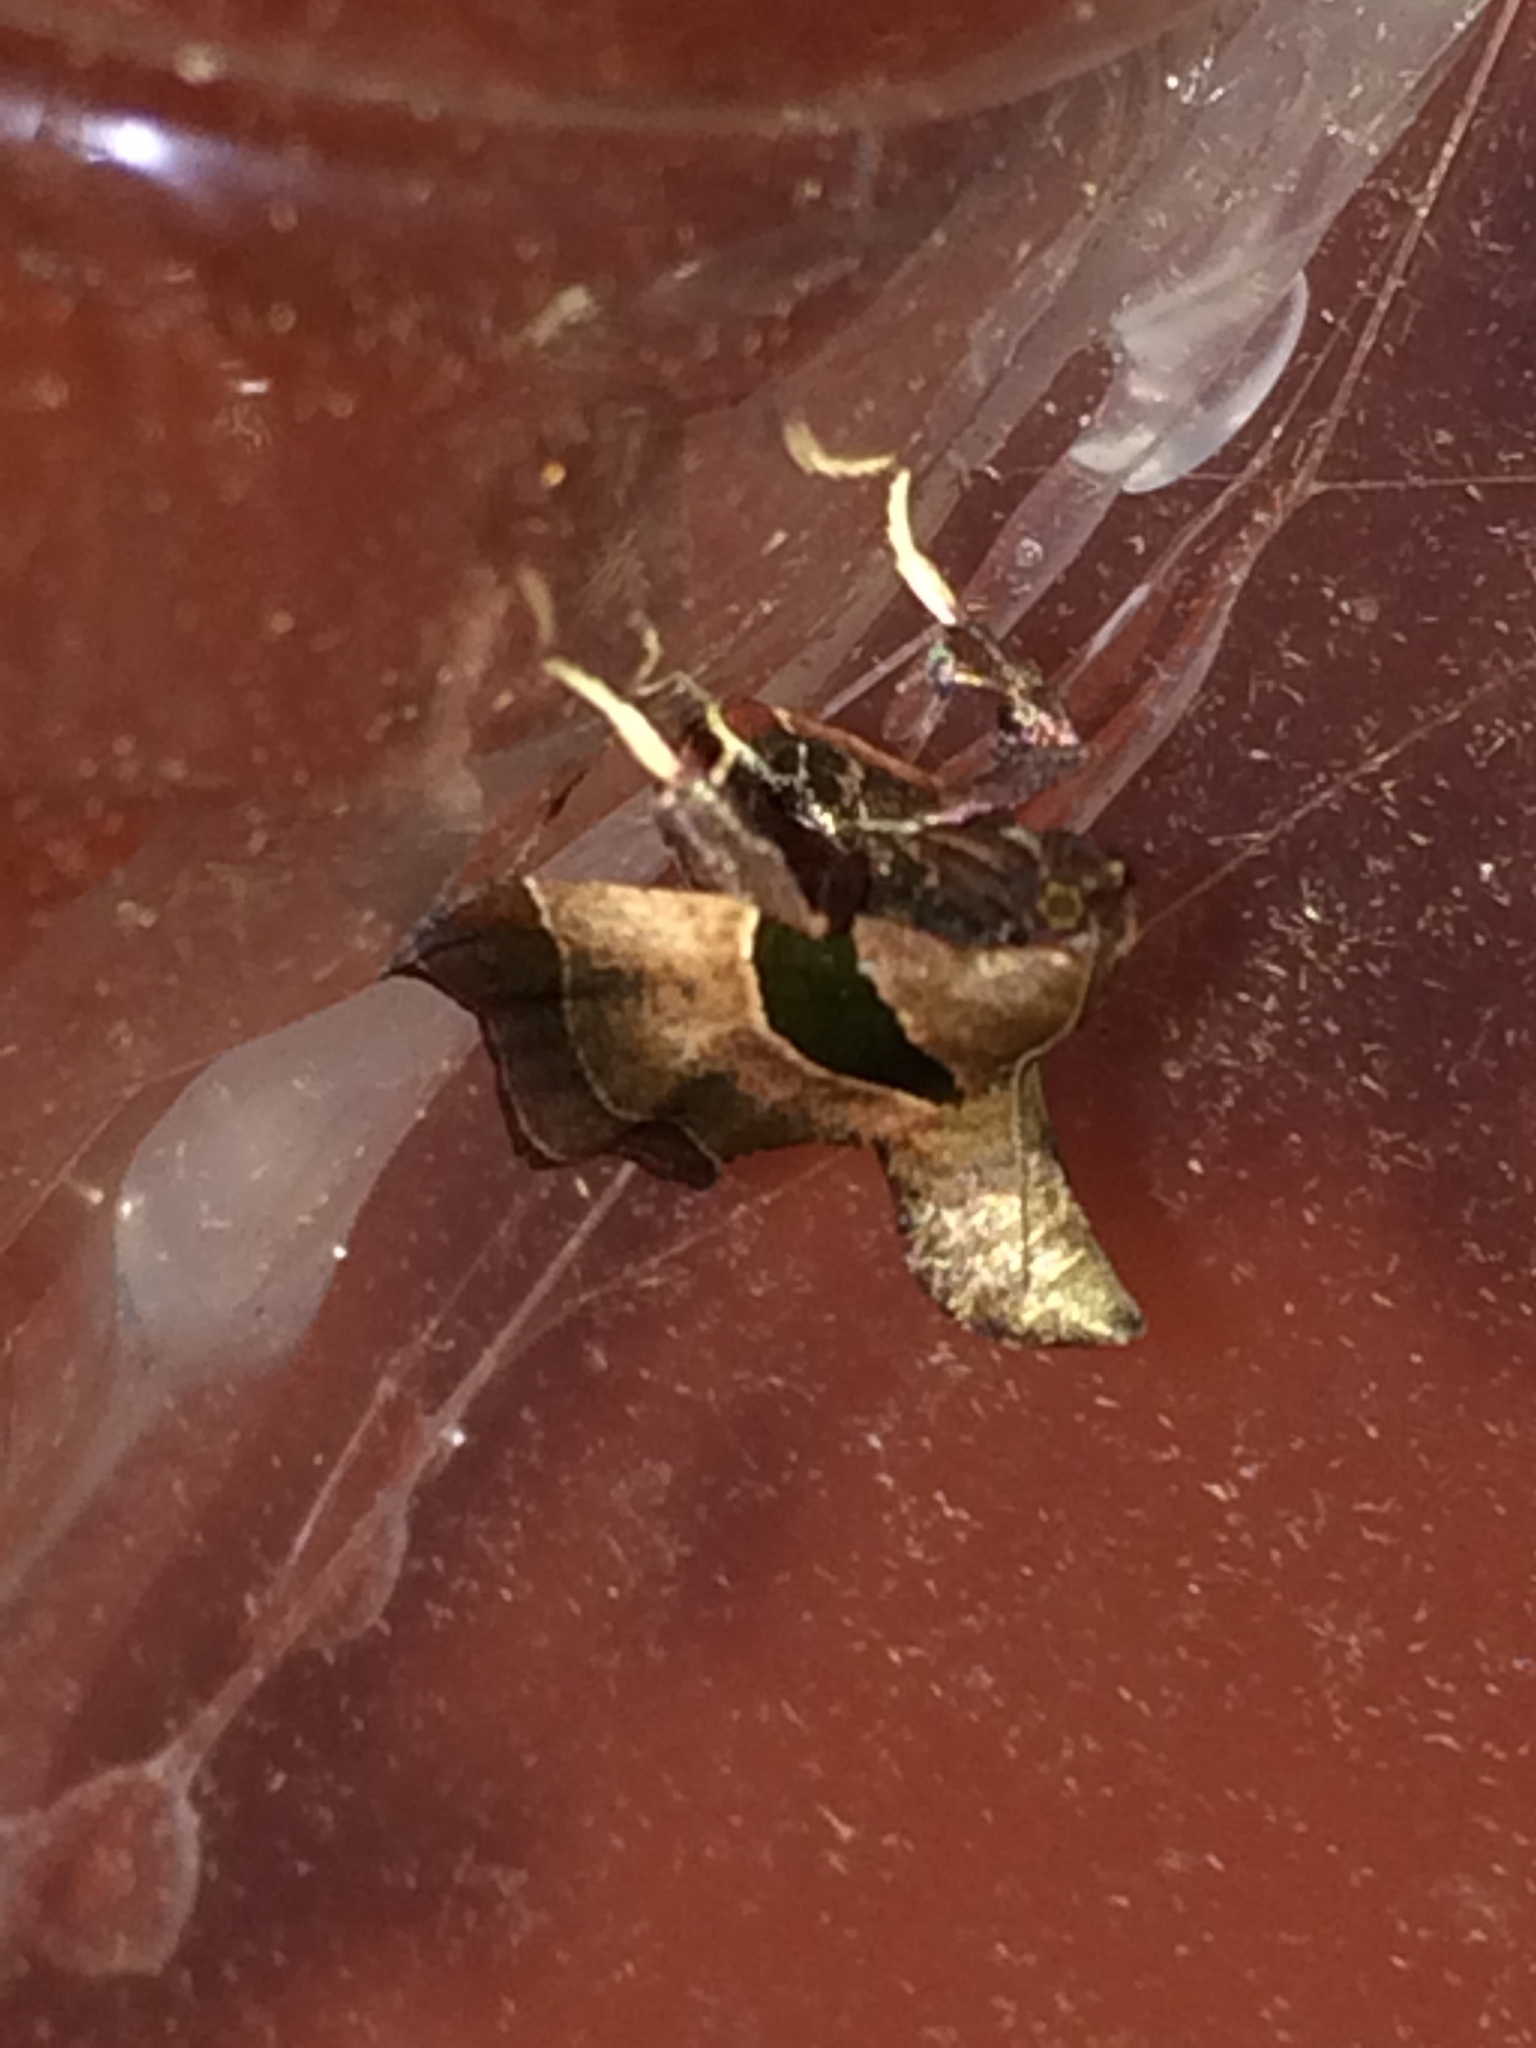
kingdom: Animalia
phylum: Arthropoda
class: Insecta
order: Lepidoptera
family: Pyralidae
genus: Tosale
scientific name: Tosale oviplagalis
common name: Dimorphic tosale moth
